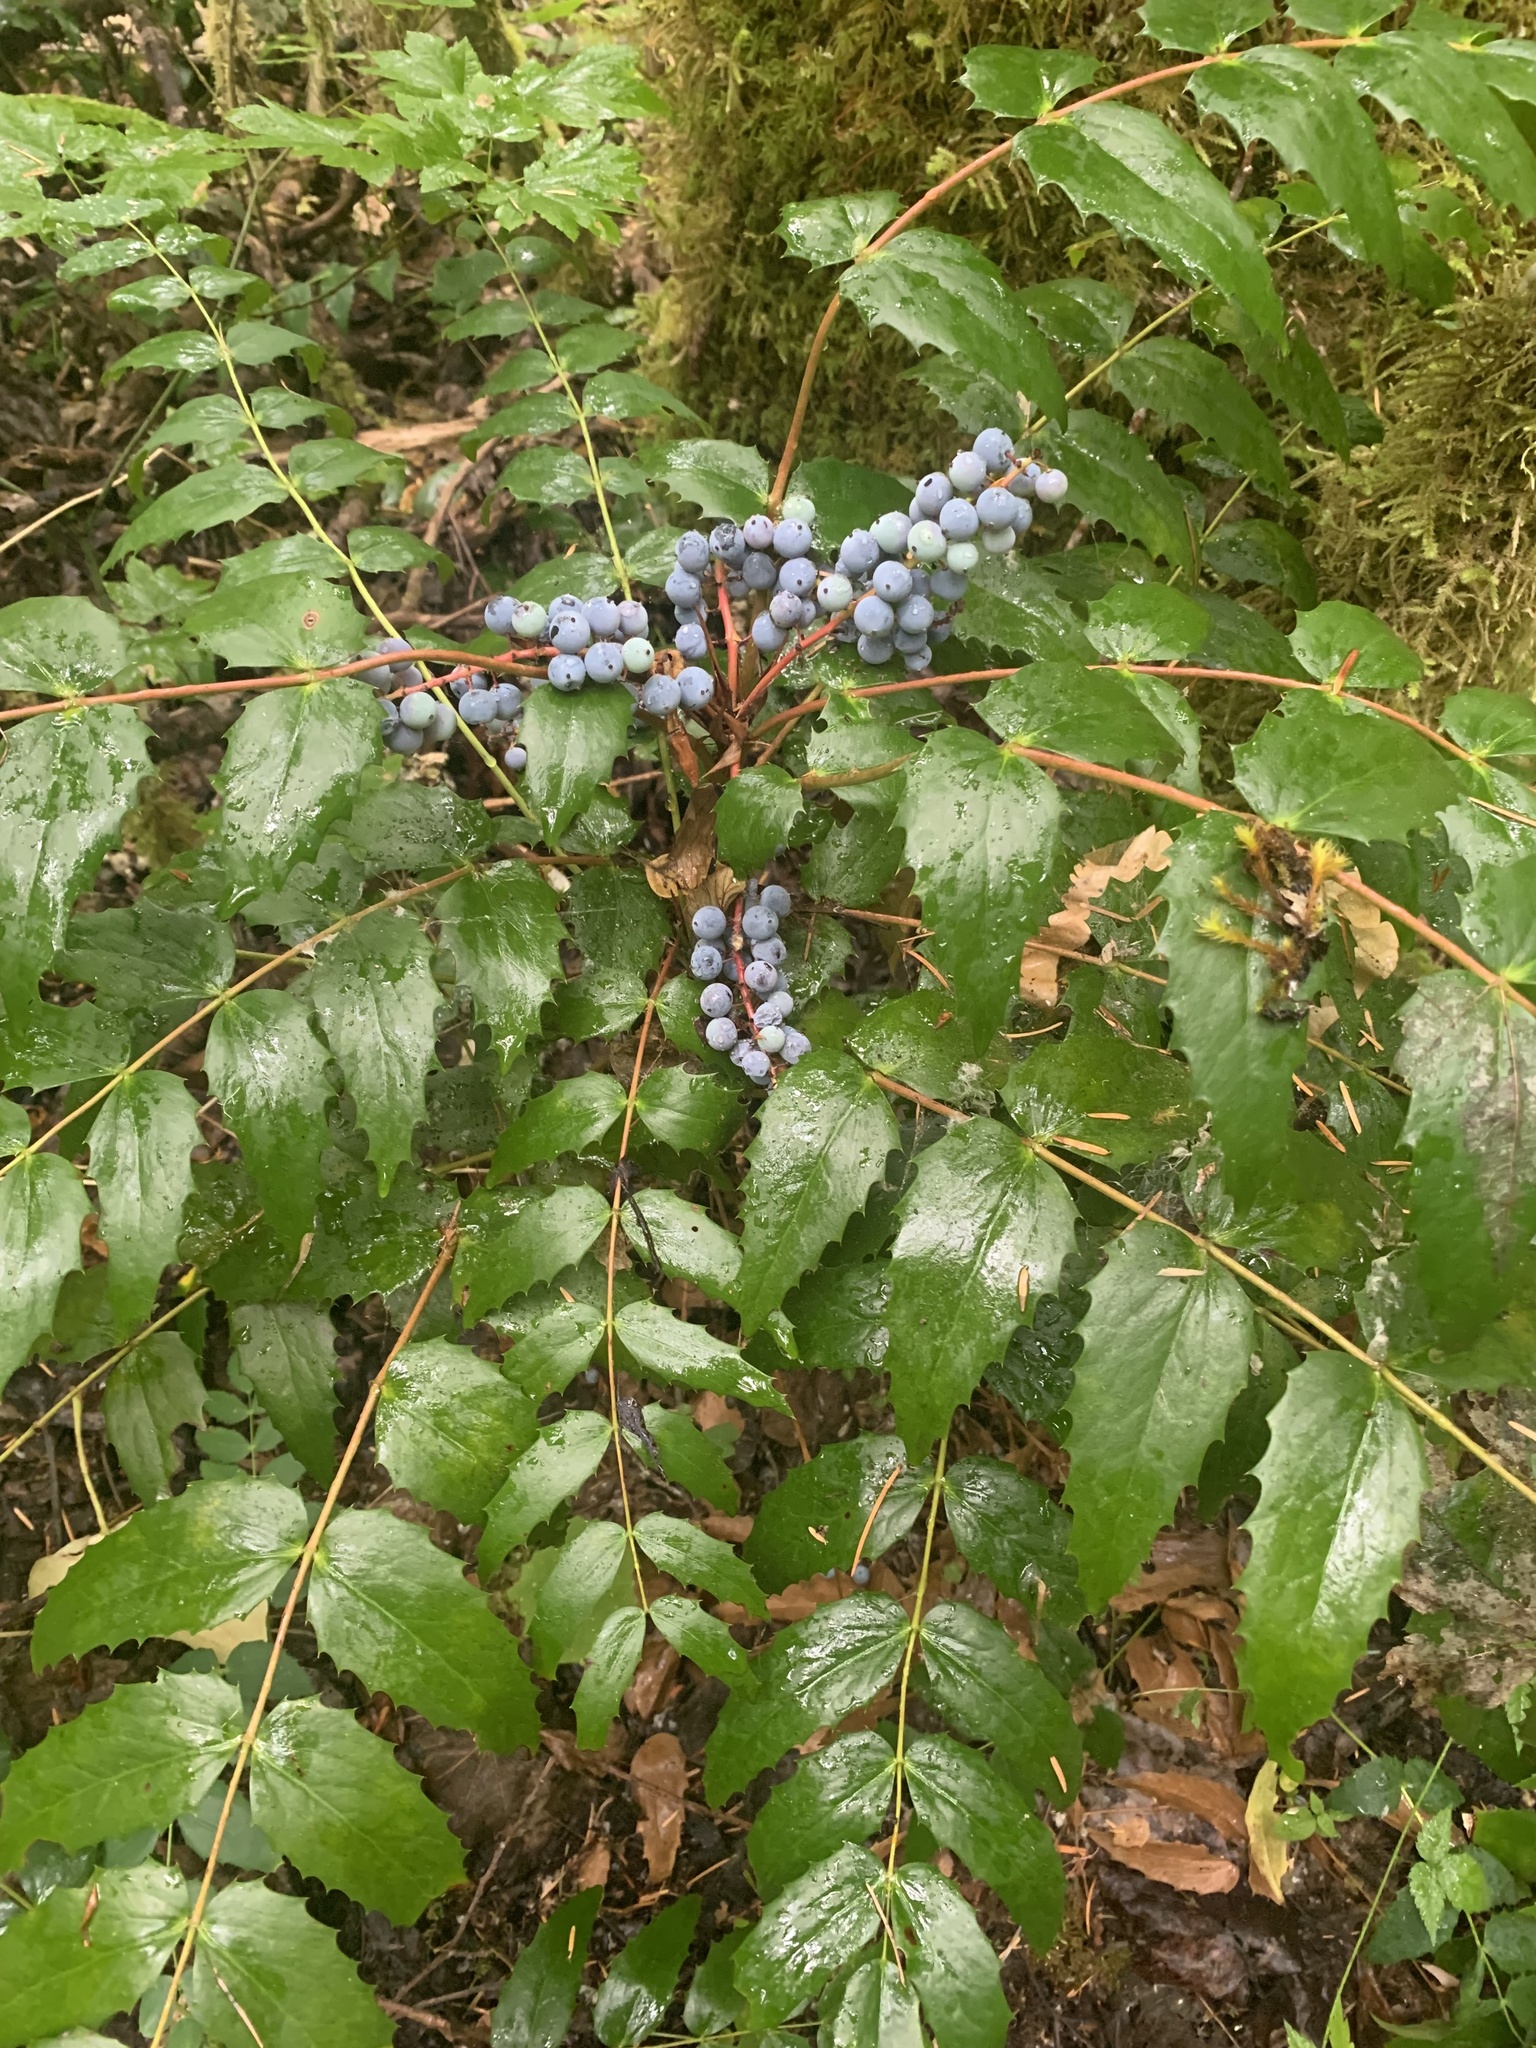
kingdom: Plantae
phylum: Tracheophyta
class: Magnoliopsida
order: Ranunculales
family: Berberidaceae
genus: Mahonia
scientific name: Mahonia nervosa
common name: Cascade oregon-grape
